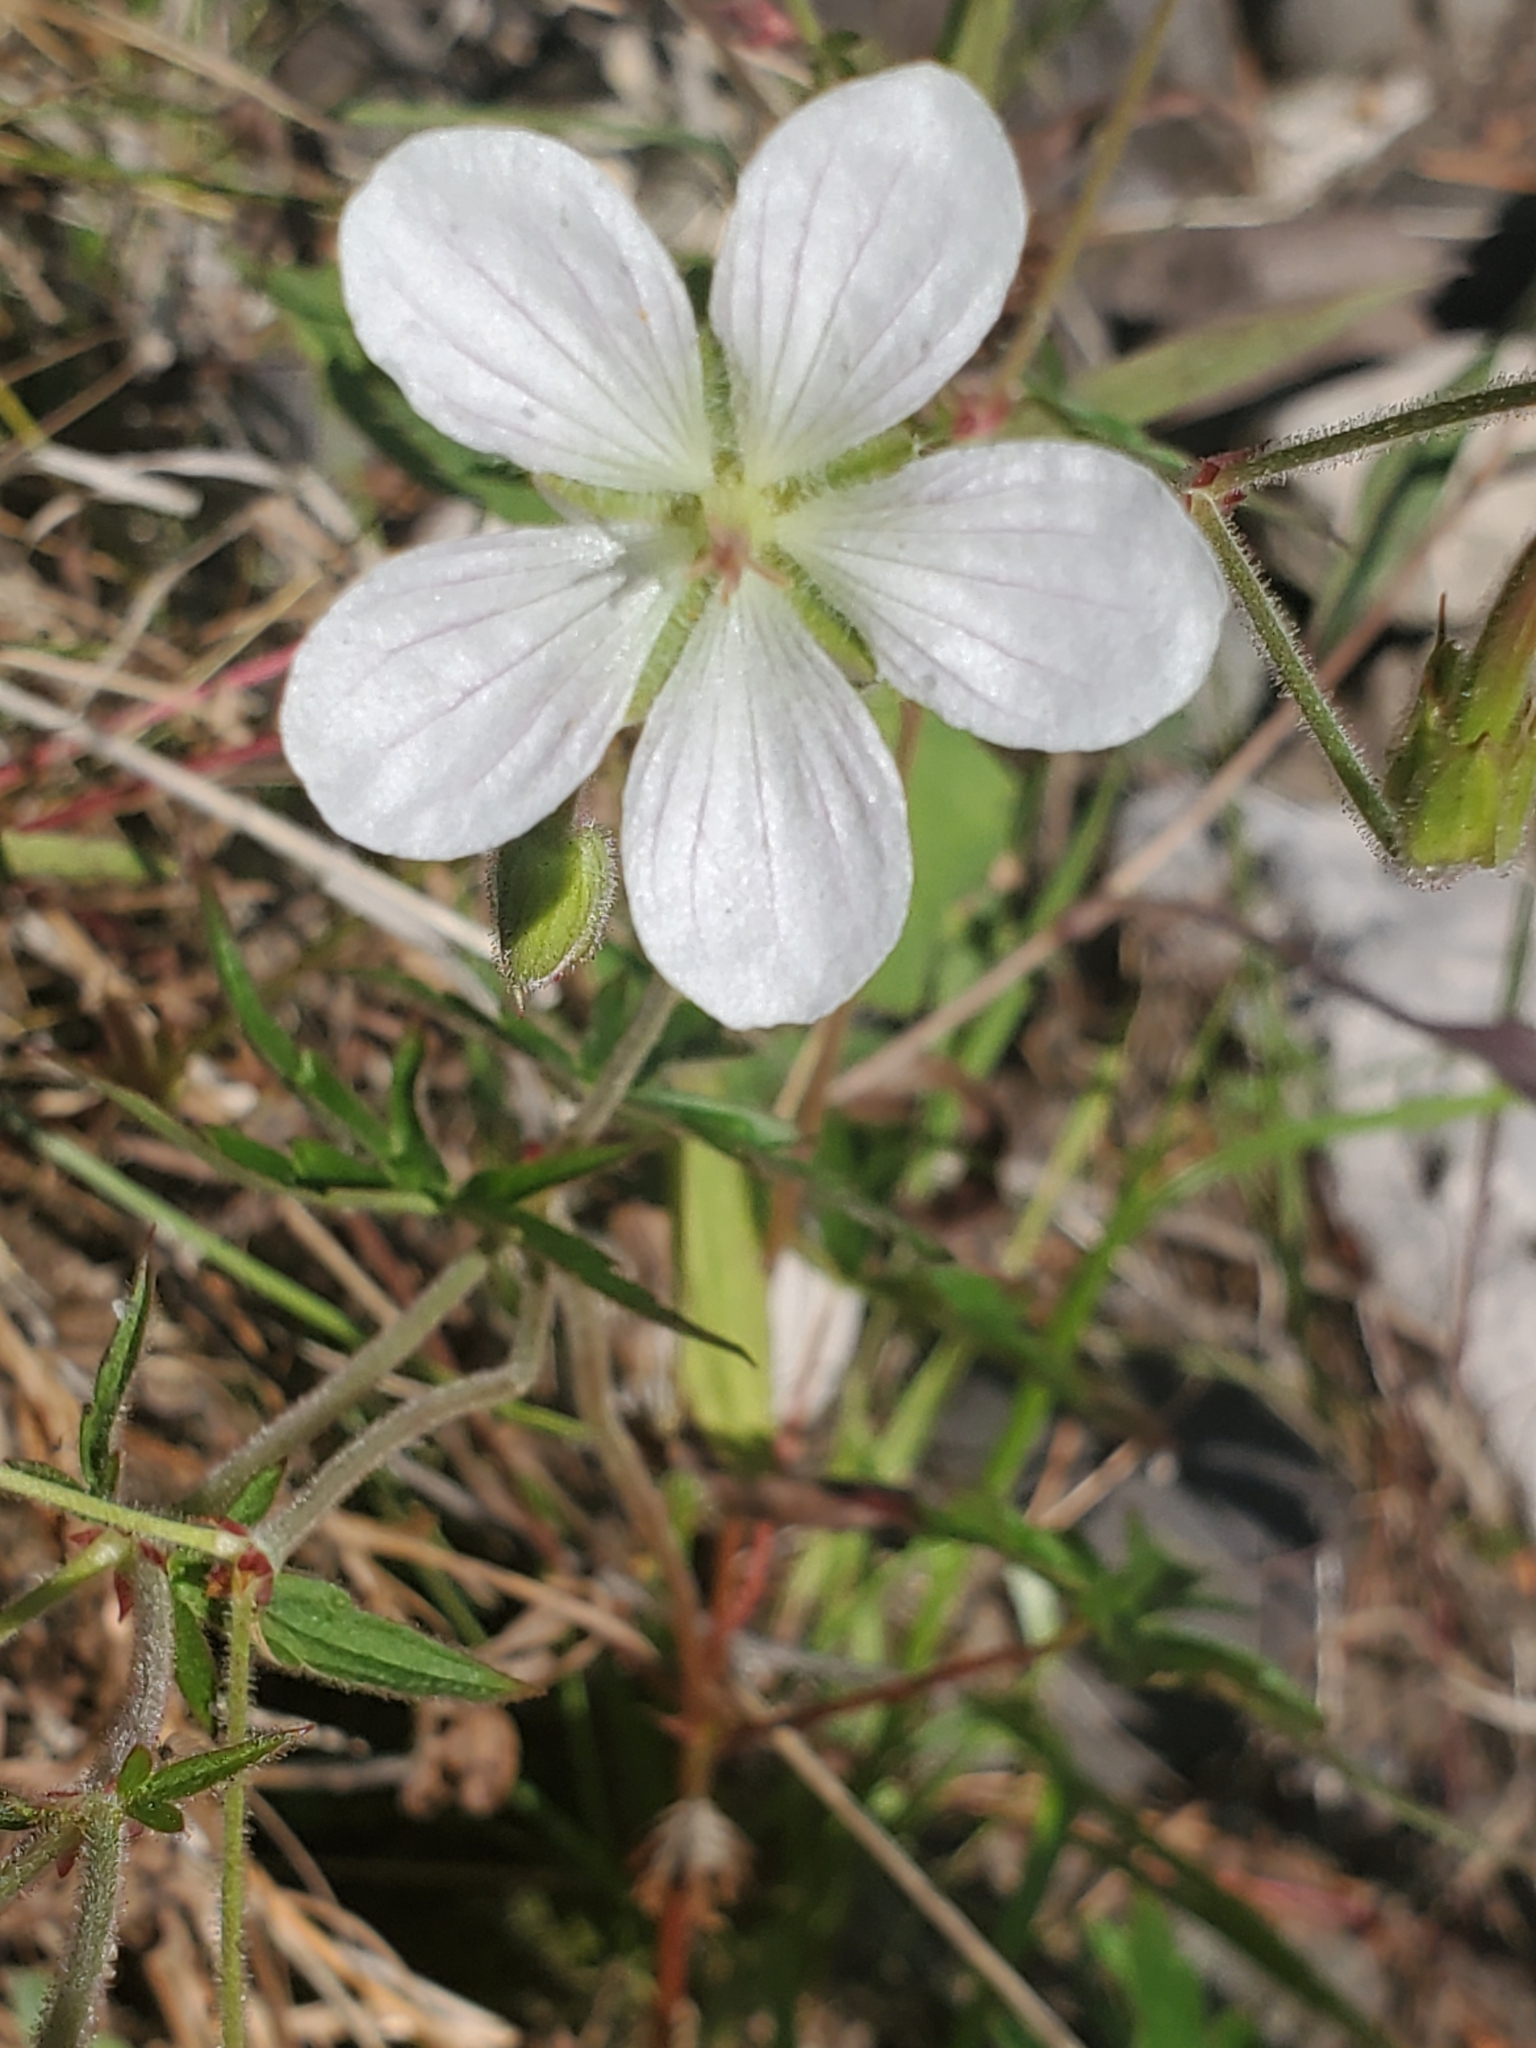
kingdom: Plantae
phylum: Tracheophyta
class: Magnoliopsida
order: Geraniales
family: Geraniaceae
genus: Geranium
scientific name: Geranium richardsonii
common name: Richardson's crane's-bill
